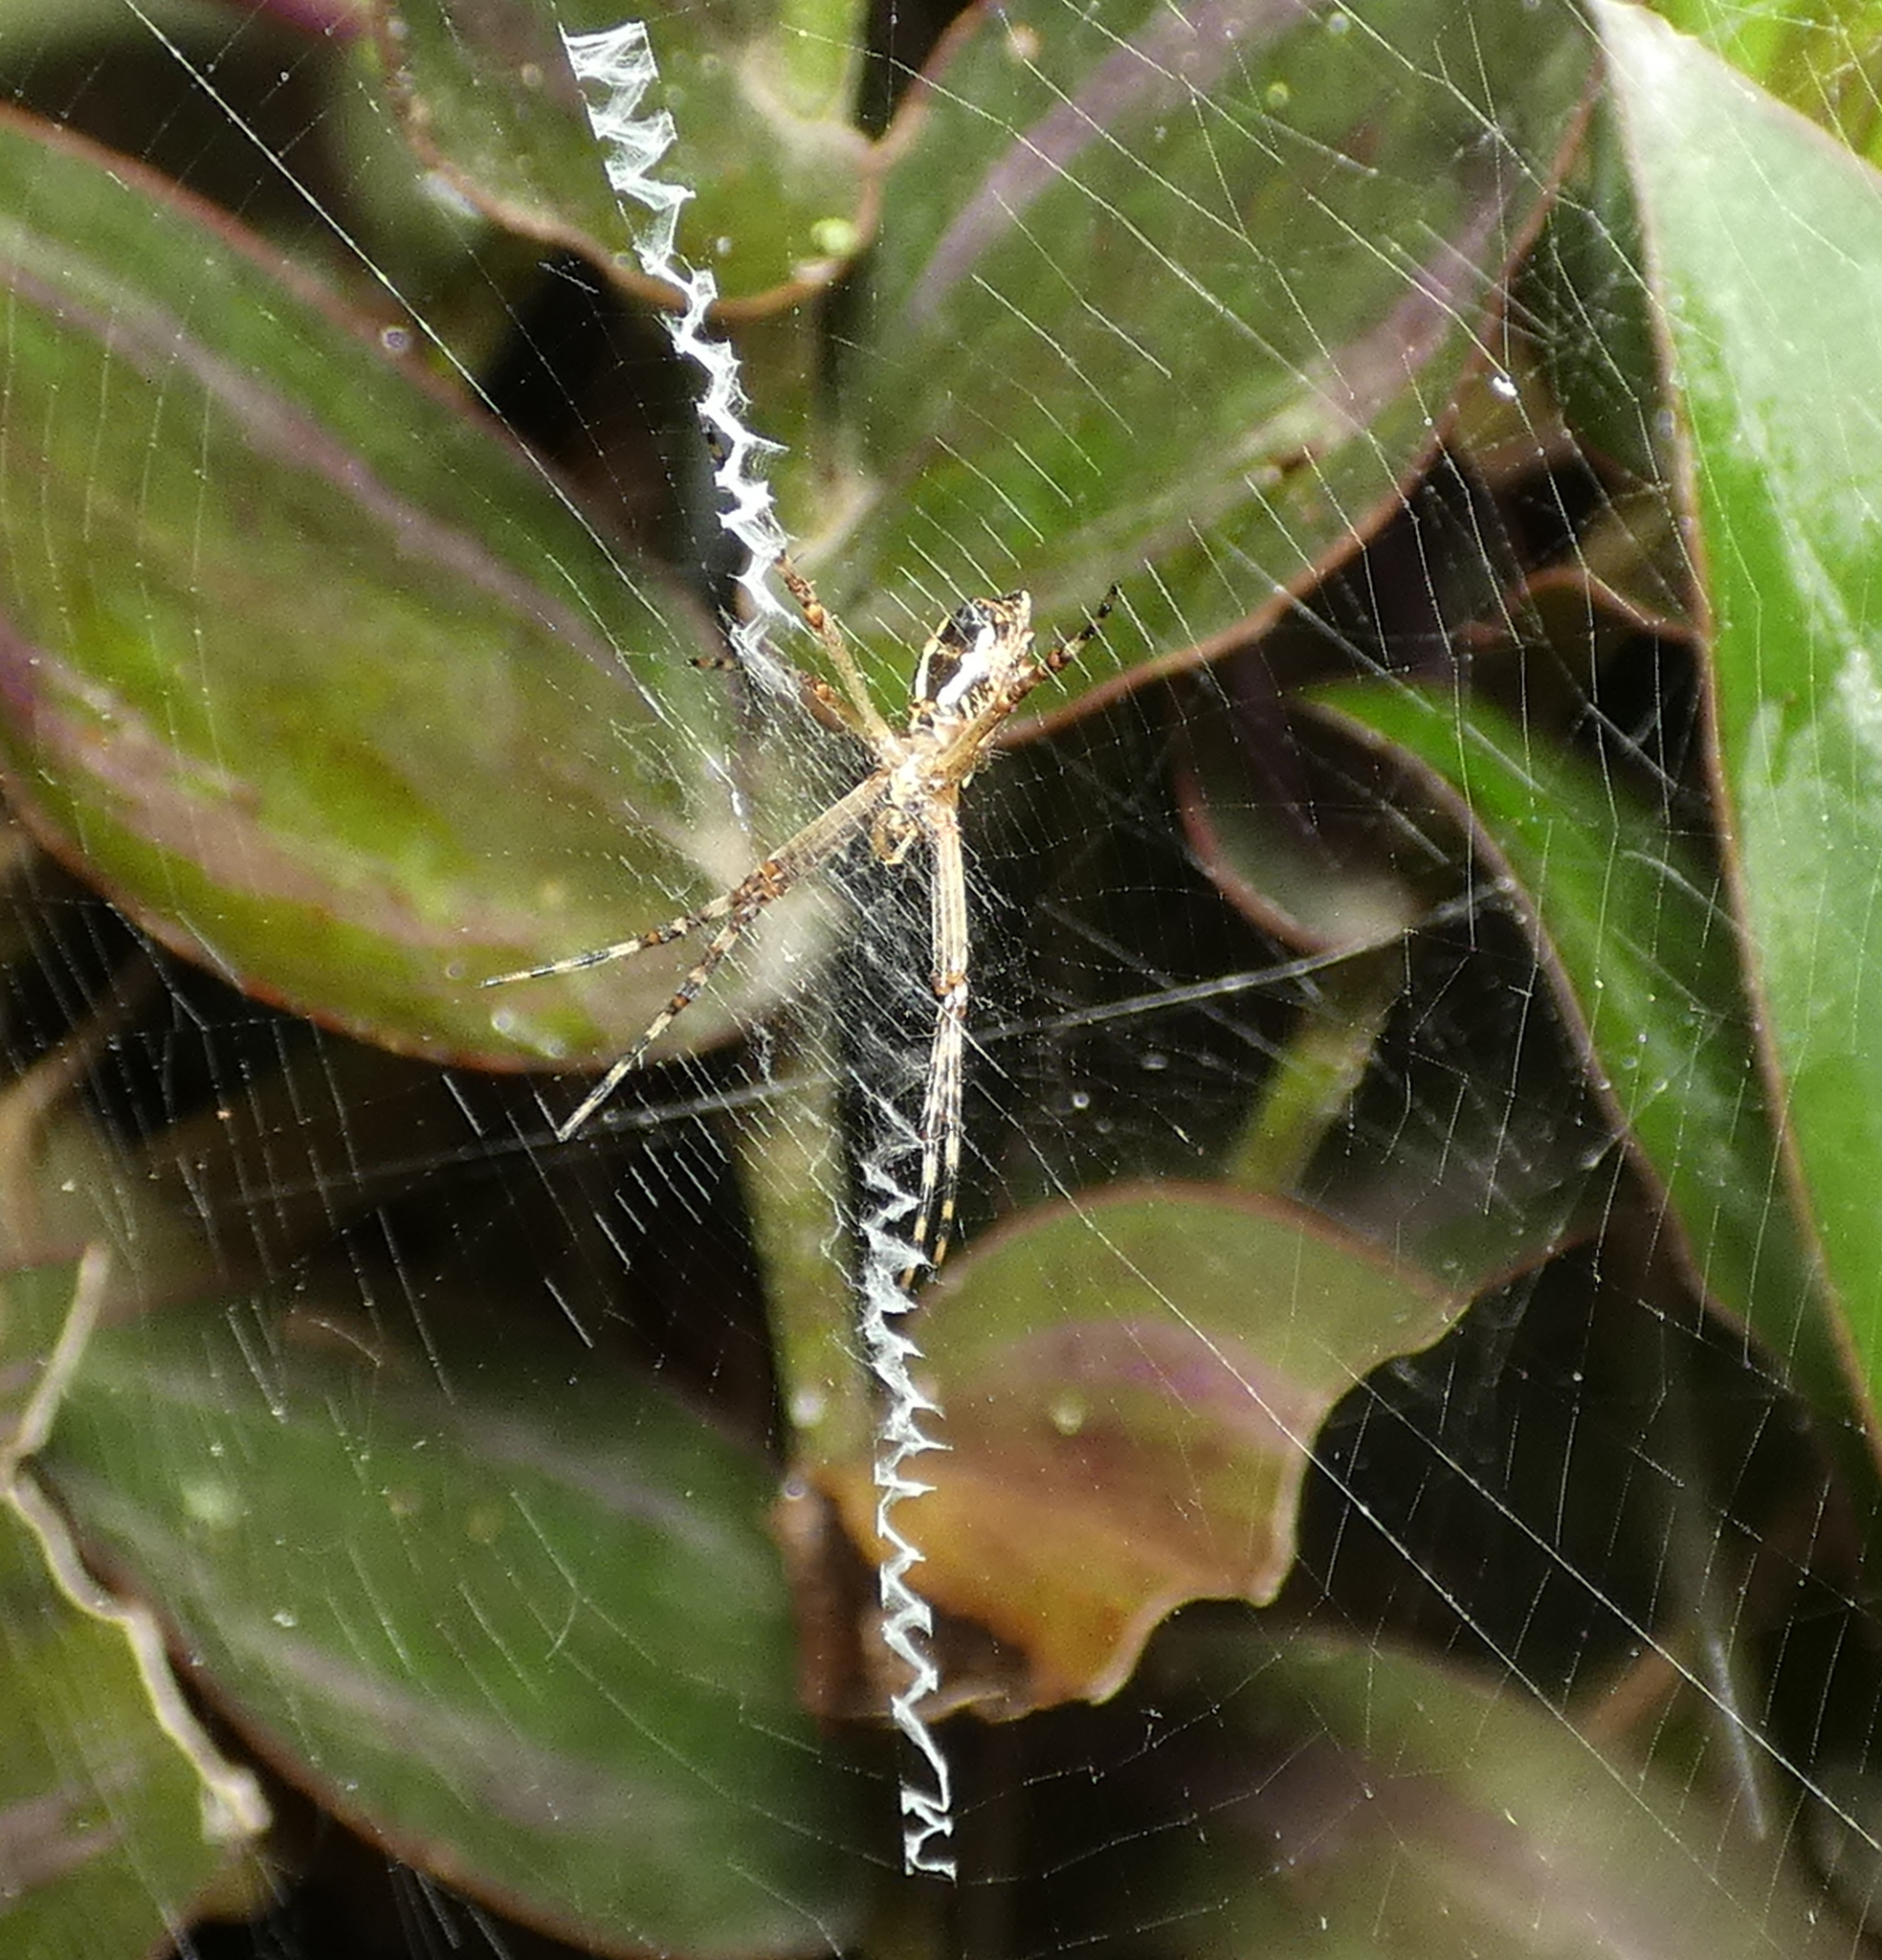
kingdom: Animalia
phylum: Arthropoda
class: Arachnida
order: Araneae
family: Araneidae
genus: Argiope
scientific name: Argiope argentata
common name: Orb weavers
